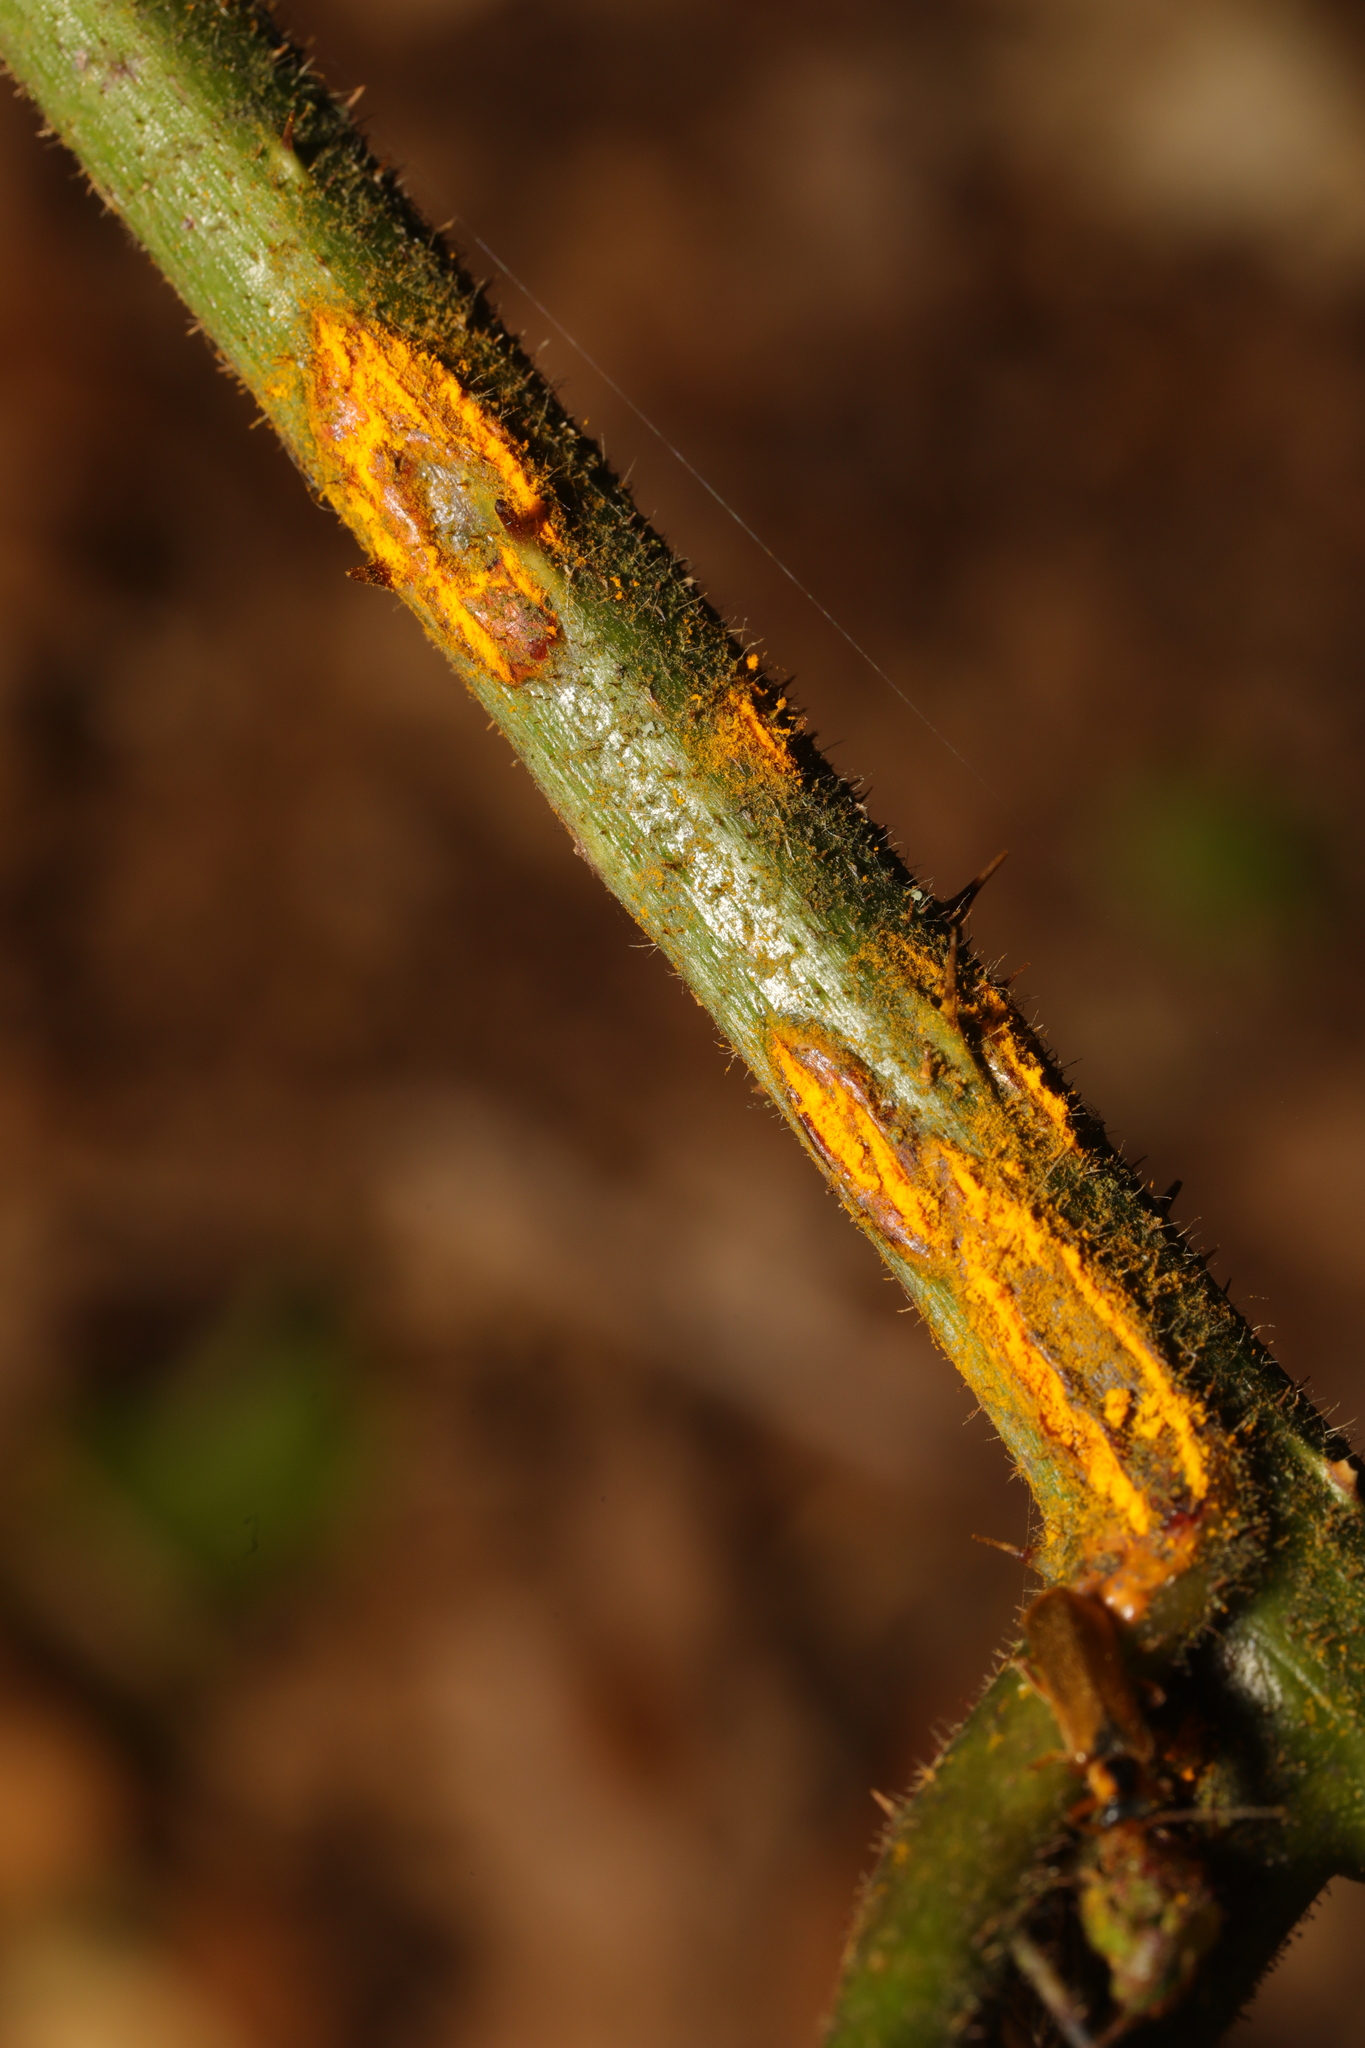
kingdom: Fungi
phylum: Basidiomycota
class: Pucciniomycetes
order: Pucciniales
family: Phragmidiaceae
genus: Kuehneola
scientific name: Kuehneola uredinis
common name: Bramble stem rust
